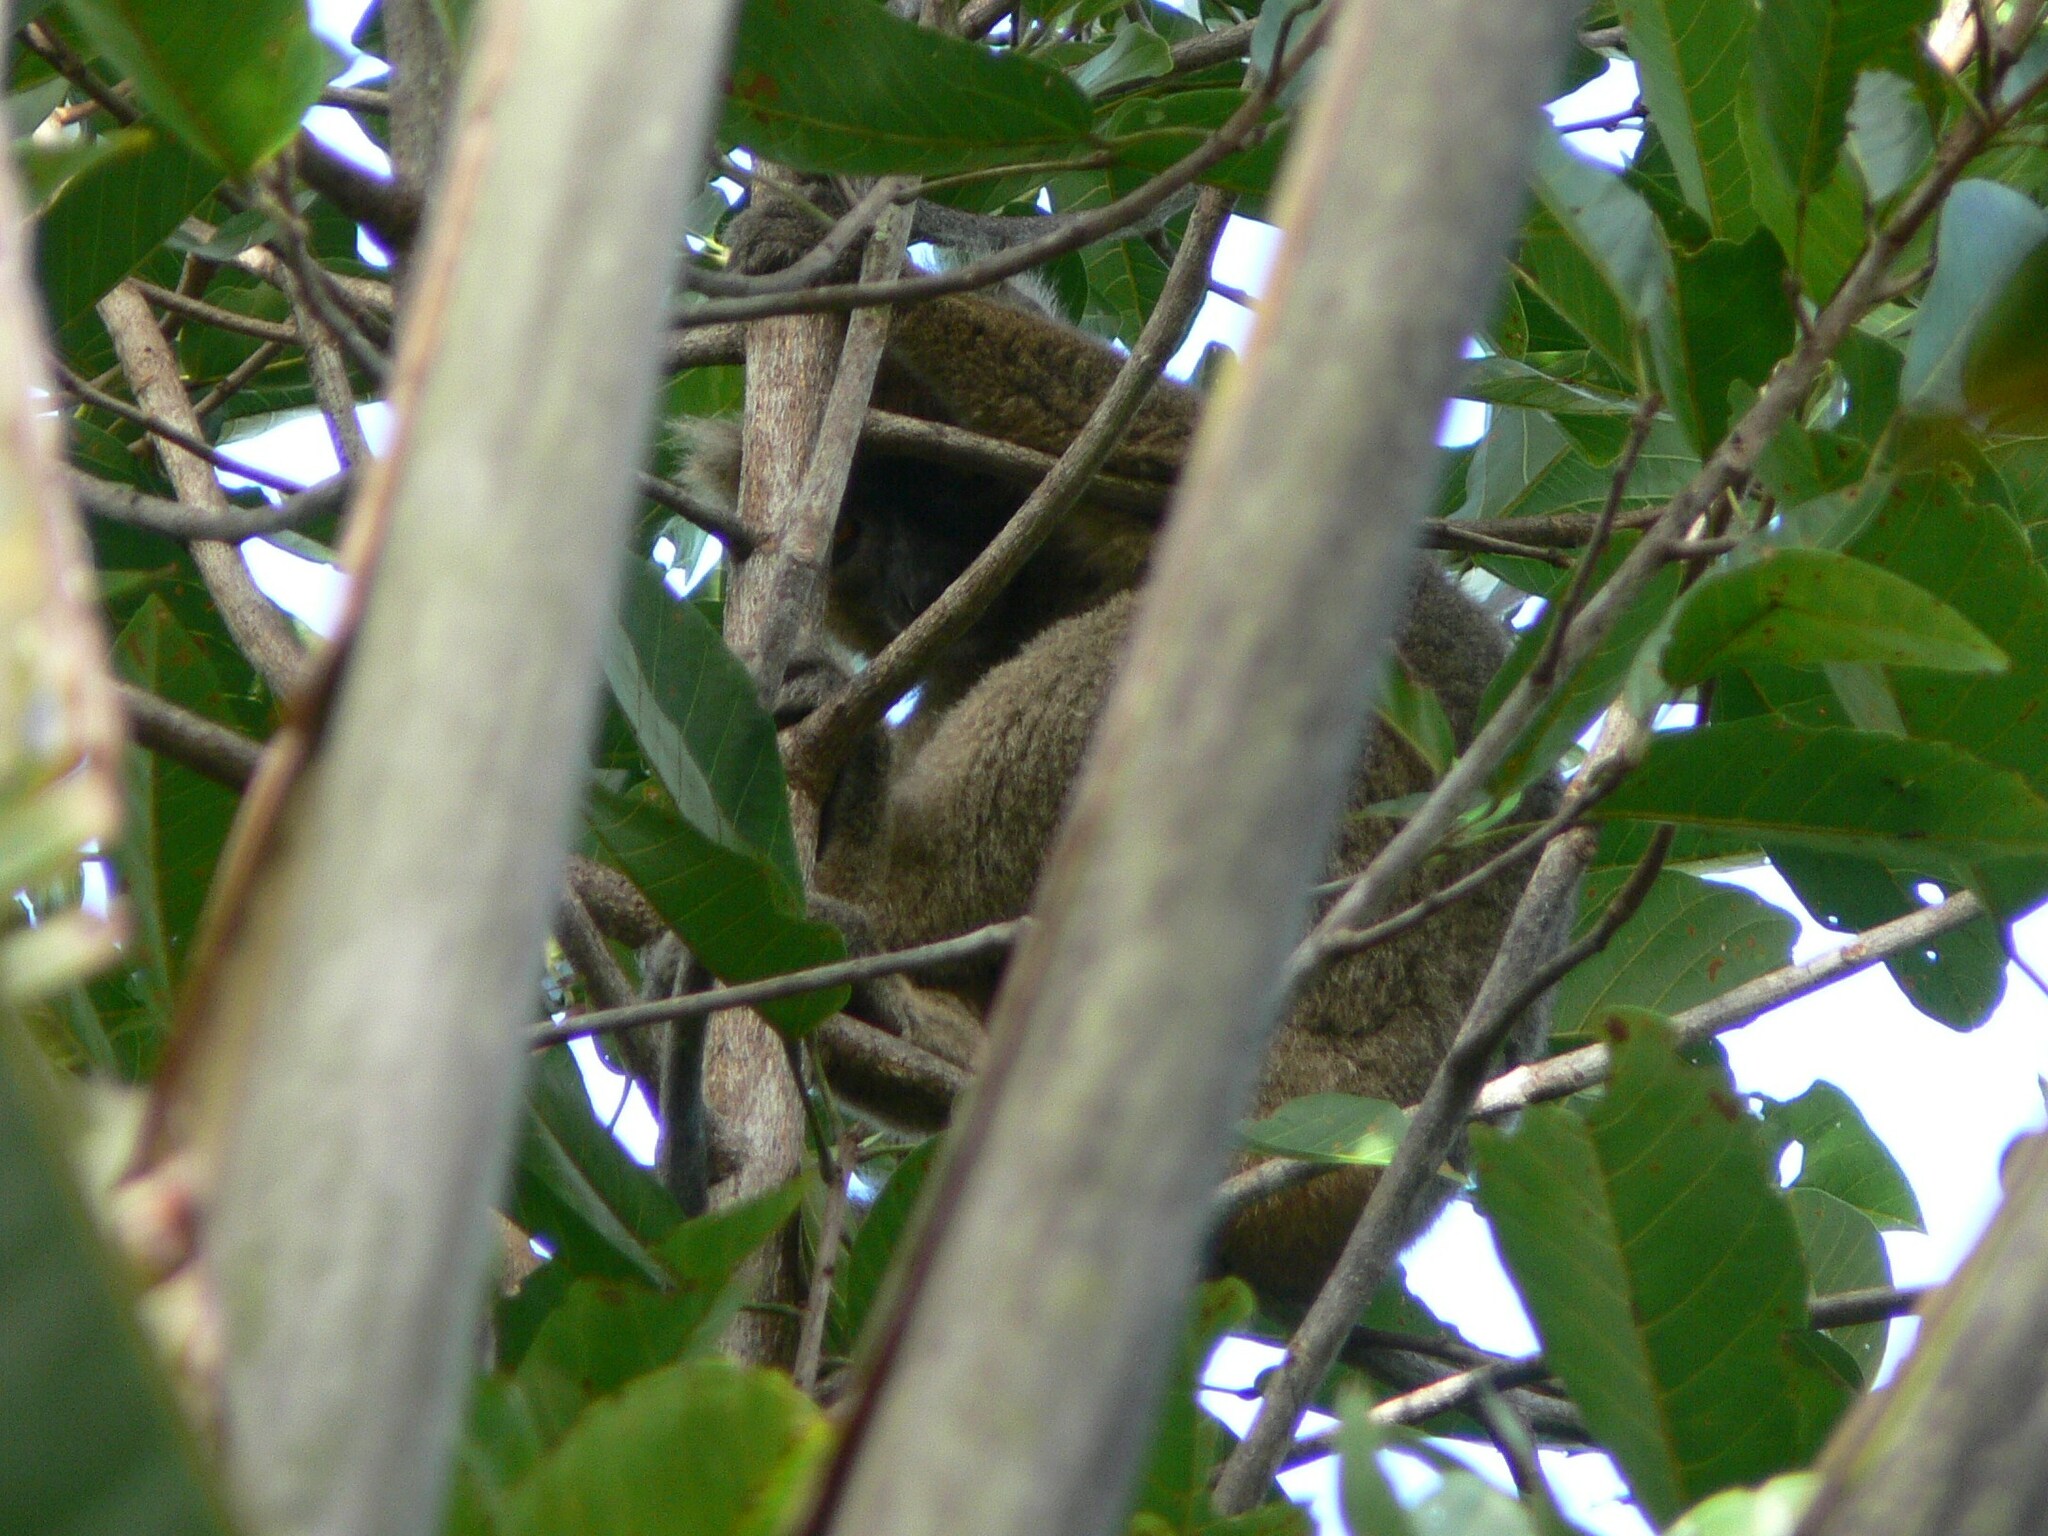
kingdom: Animalia
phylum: Chordata
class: Mammalia
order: Primates
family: Lemuridae
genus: Prolemur
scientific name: Prolemur simus
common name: Greater bamboo lemur
